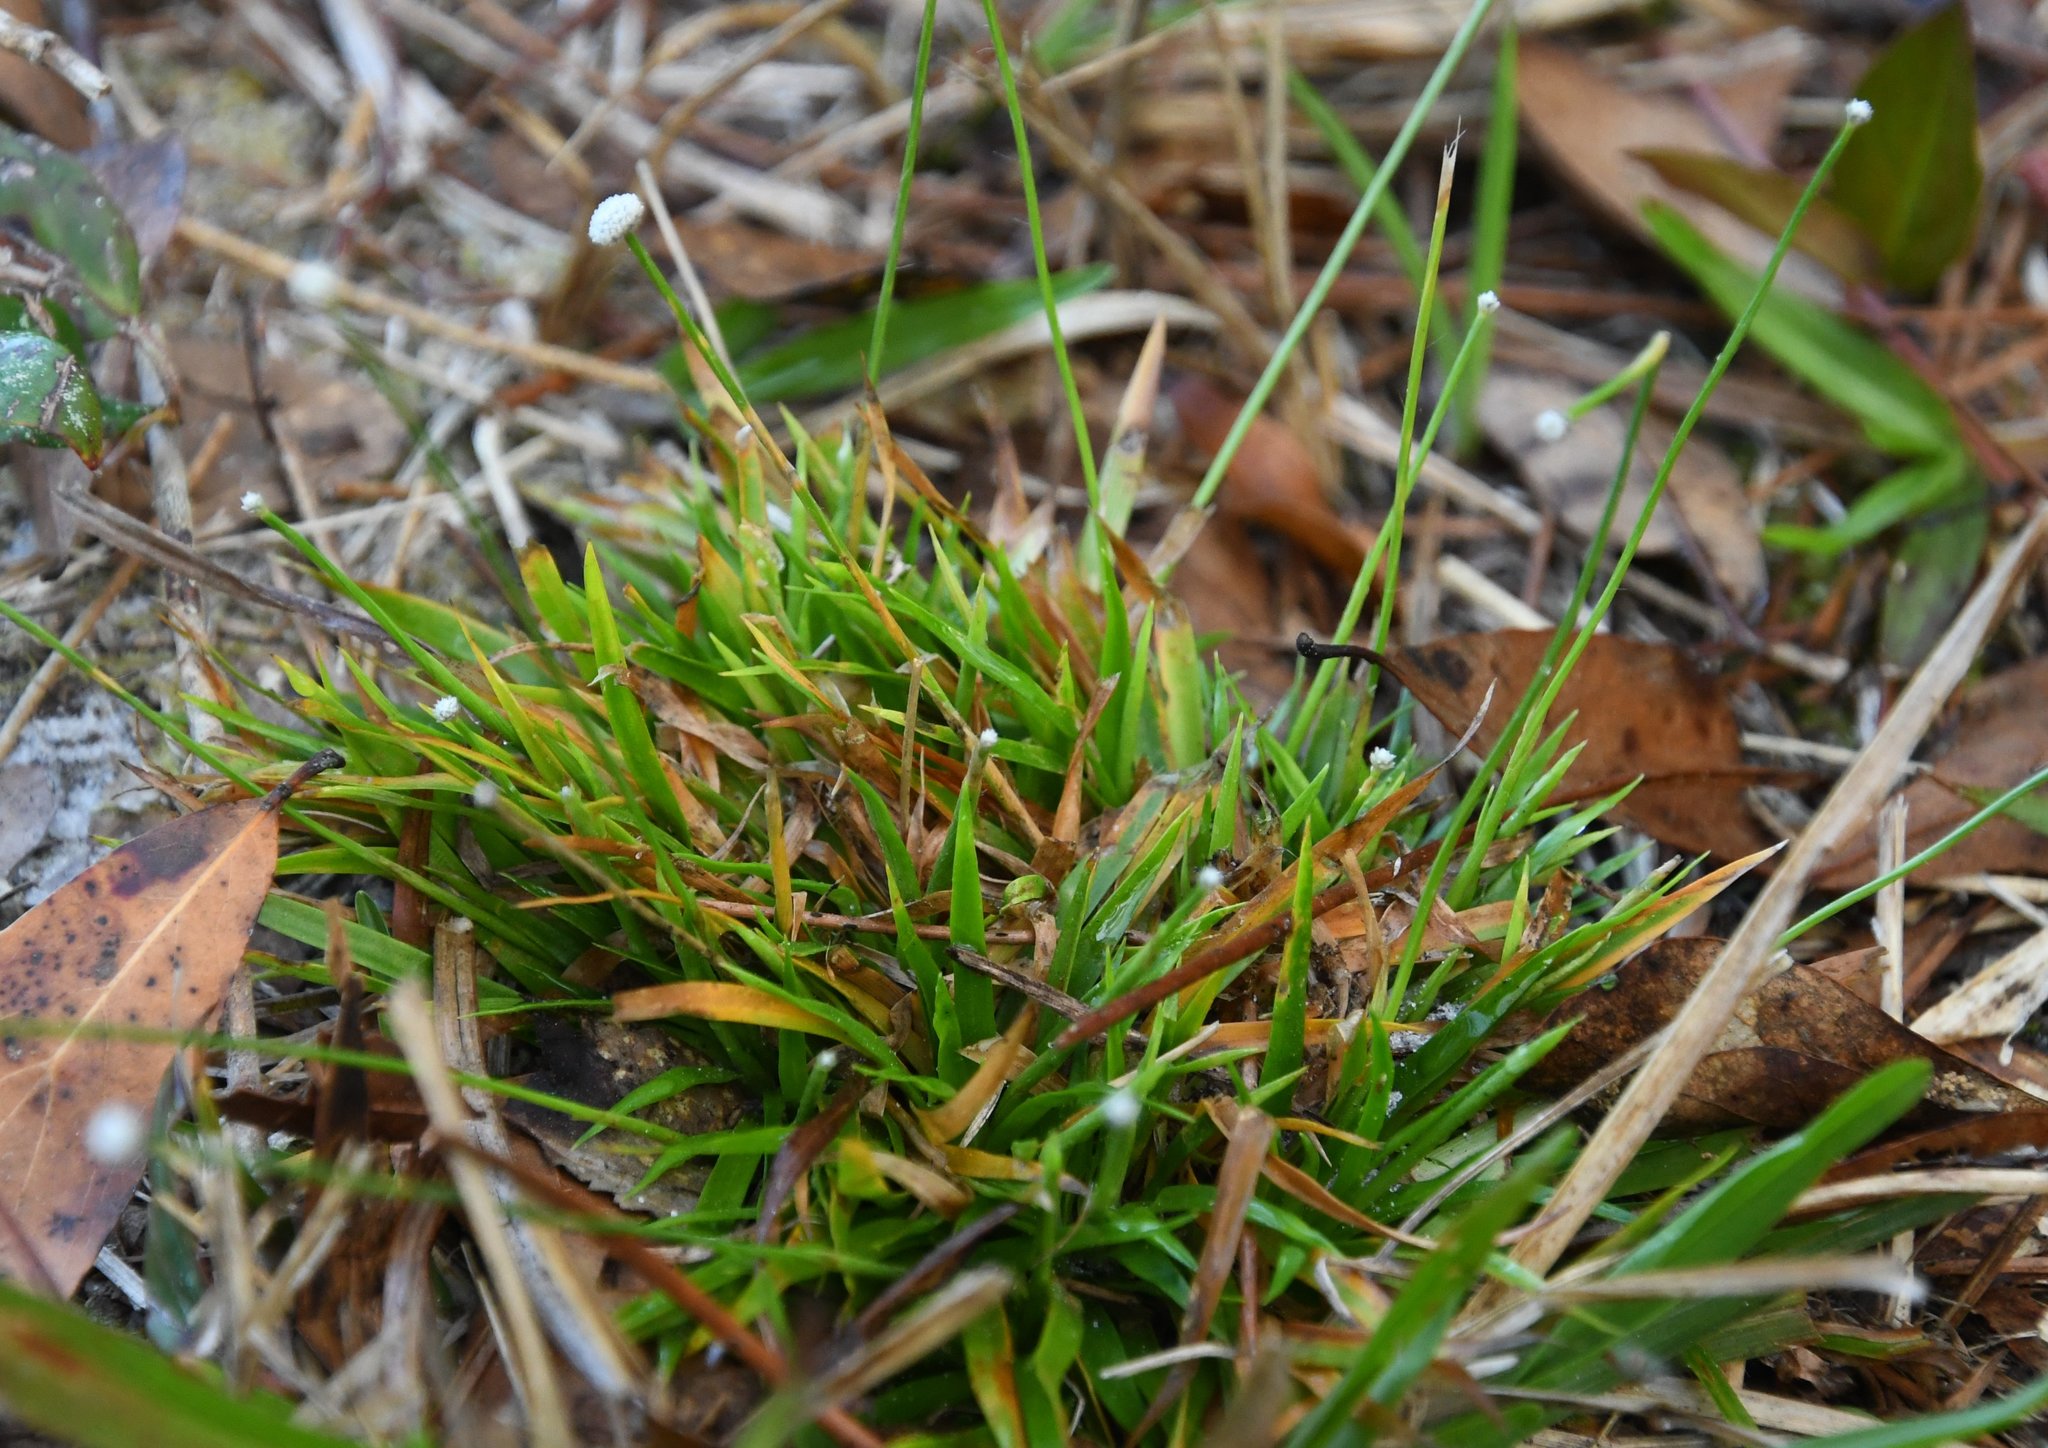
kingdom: Plantae
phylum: Tracheophyta
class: Liliopsida
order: Poales
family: Eriocaulaceae
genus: Paepalanthus
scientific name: Paepalanthus anceps
